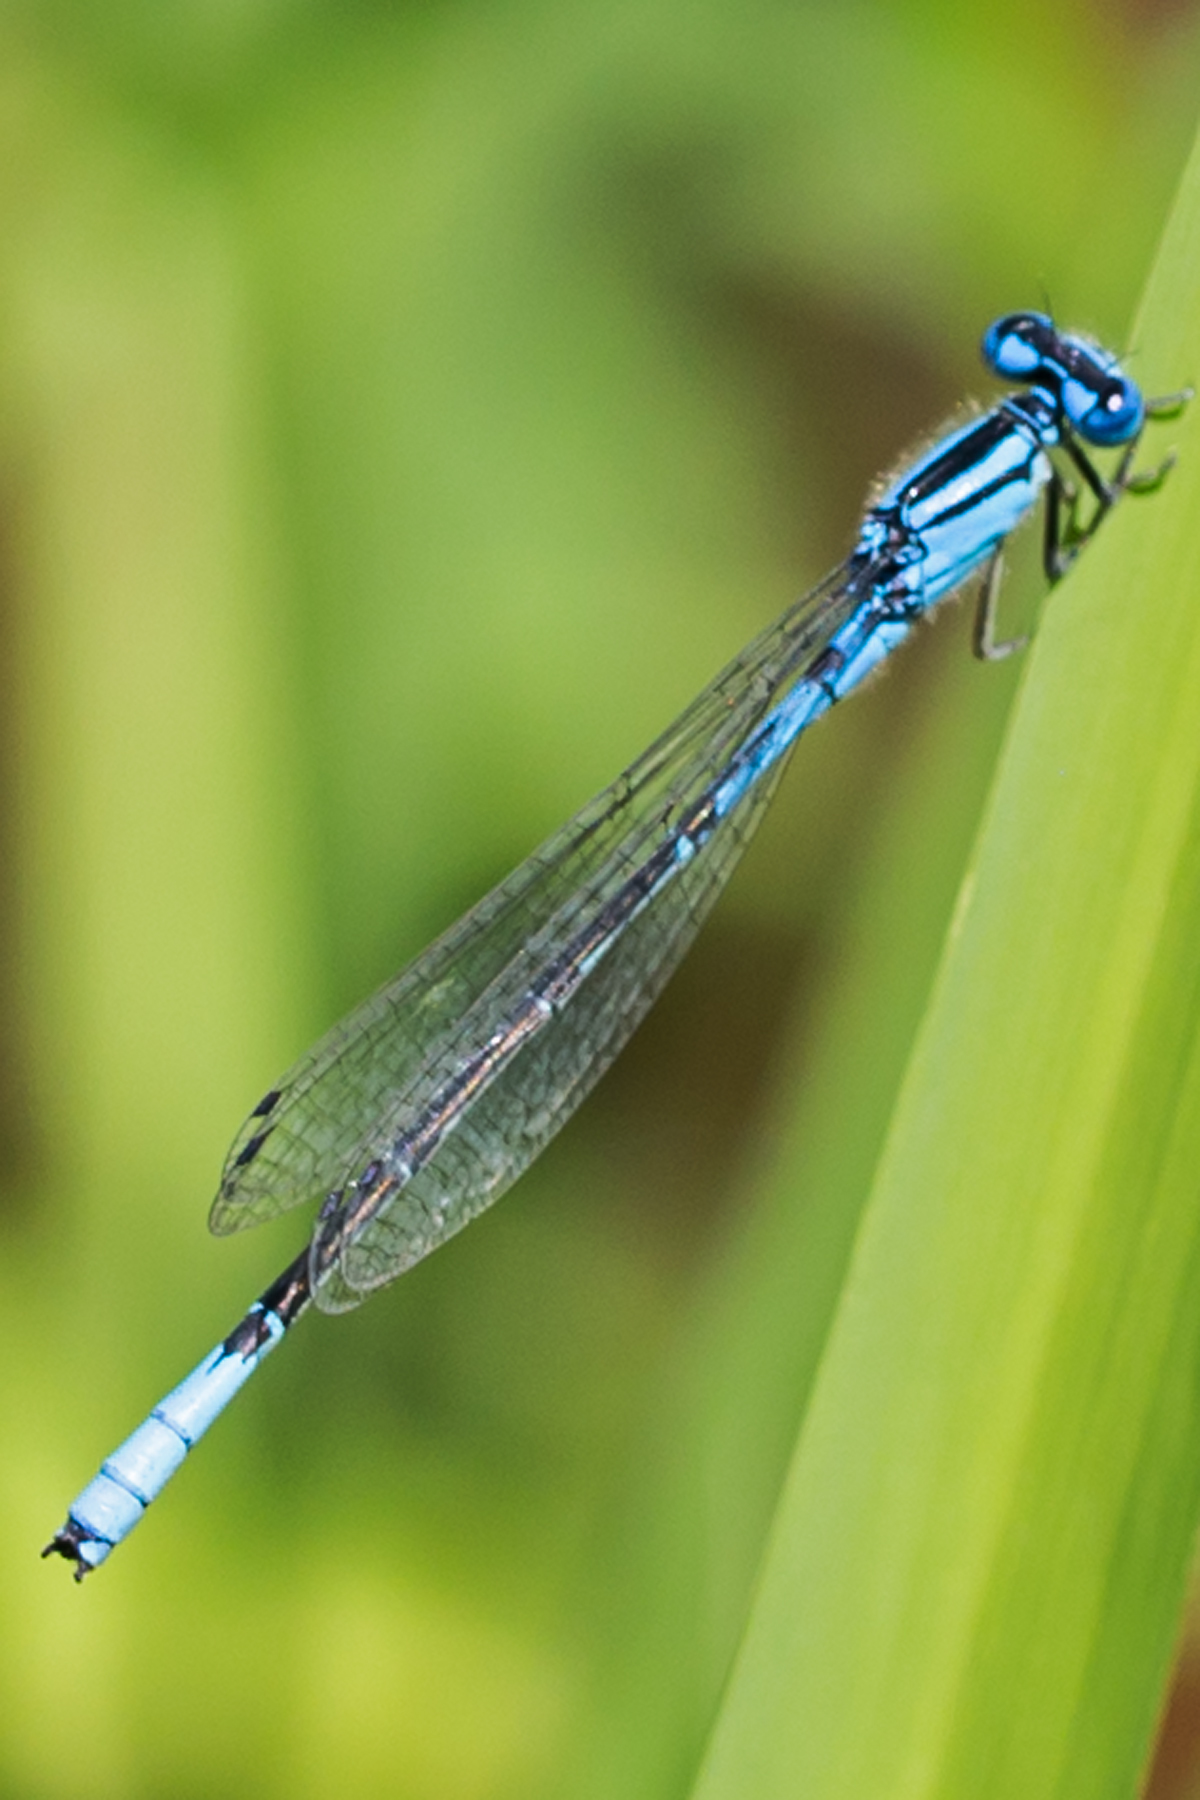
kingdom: Animalia
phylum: Arthropoda
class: Insecta
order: Odonata
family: Coenagrionidae
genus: Enallagma
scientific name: Enallagma aspersum
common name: Azure bluet
